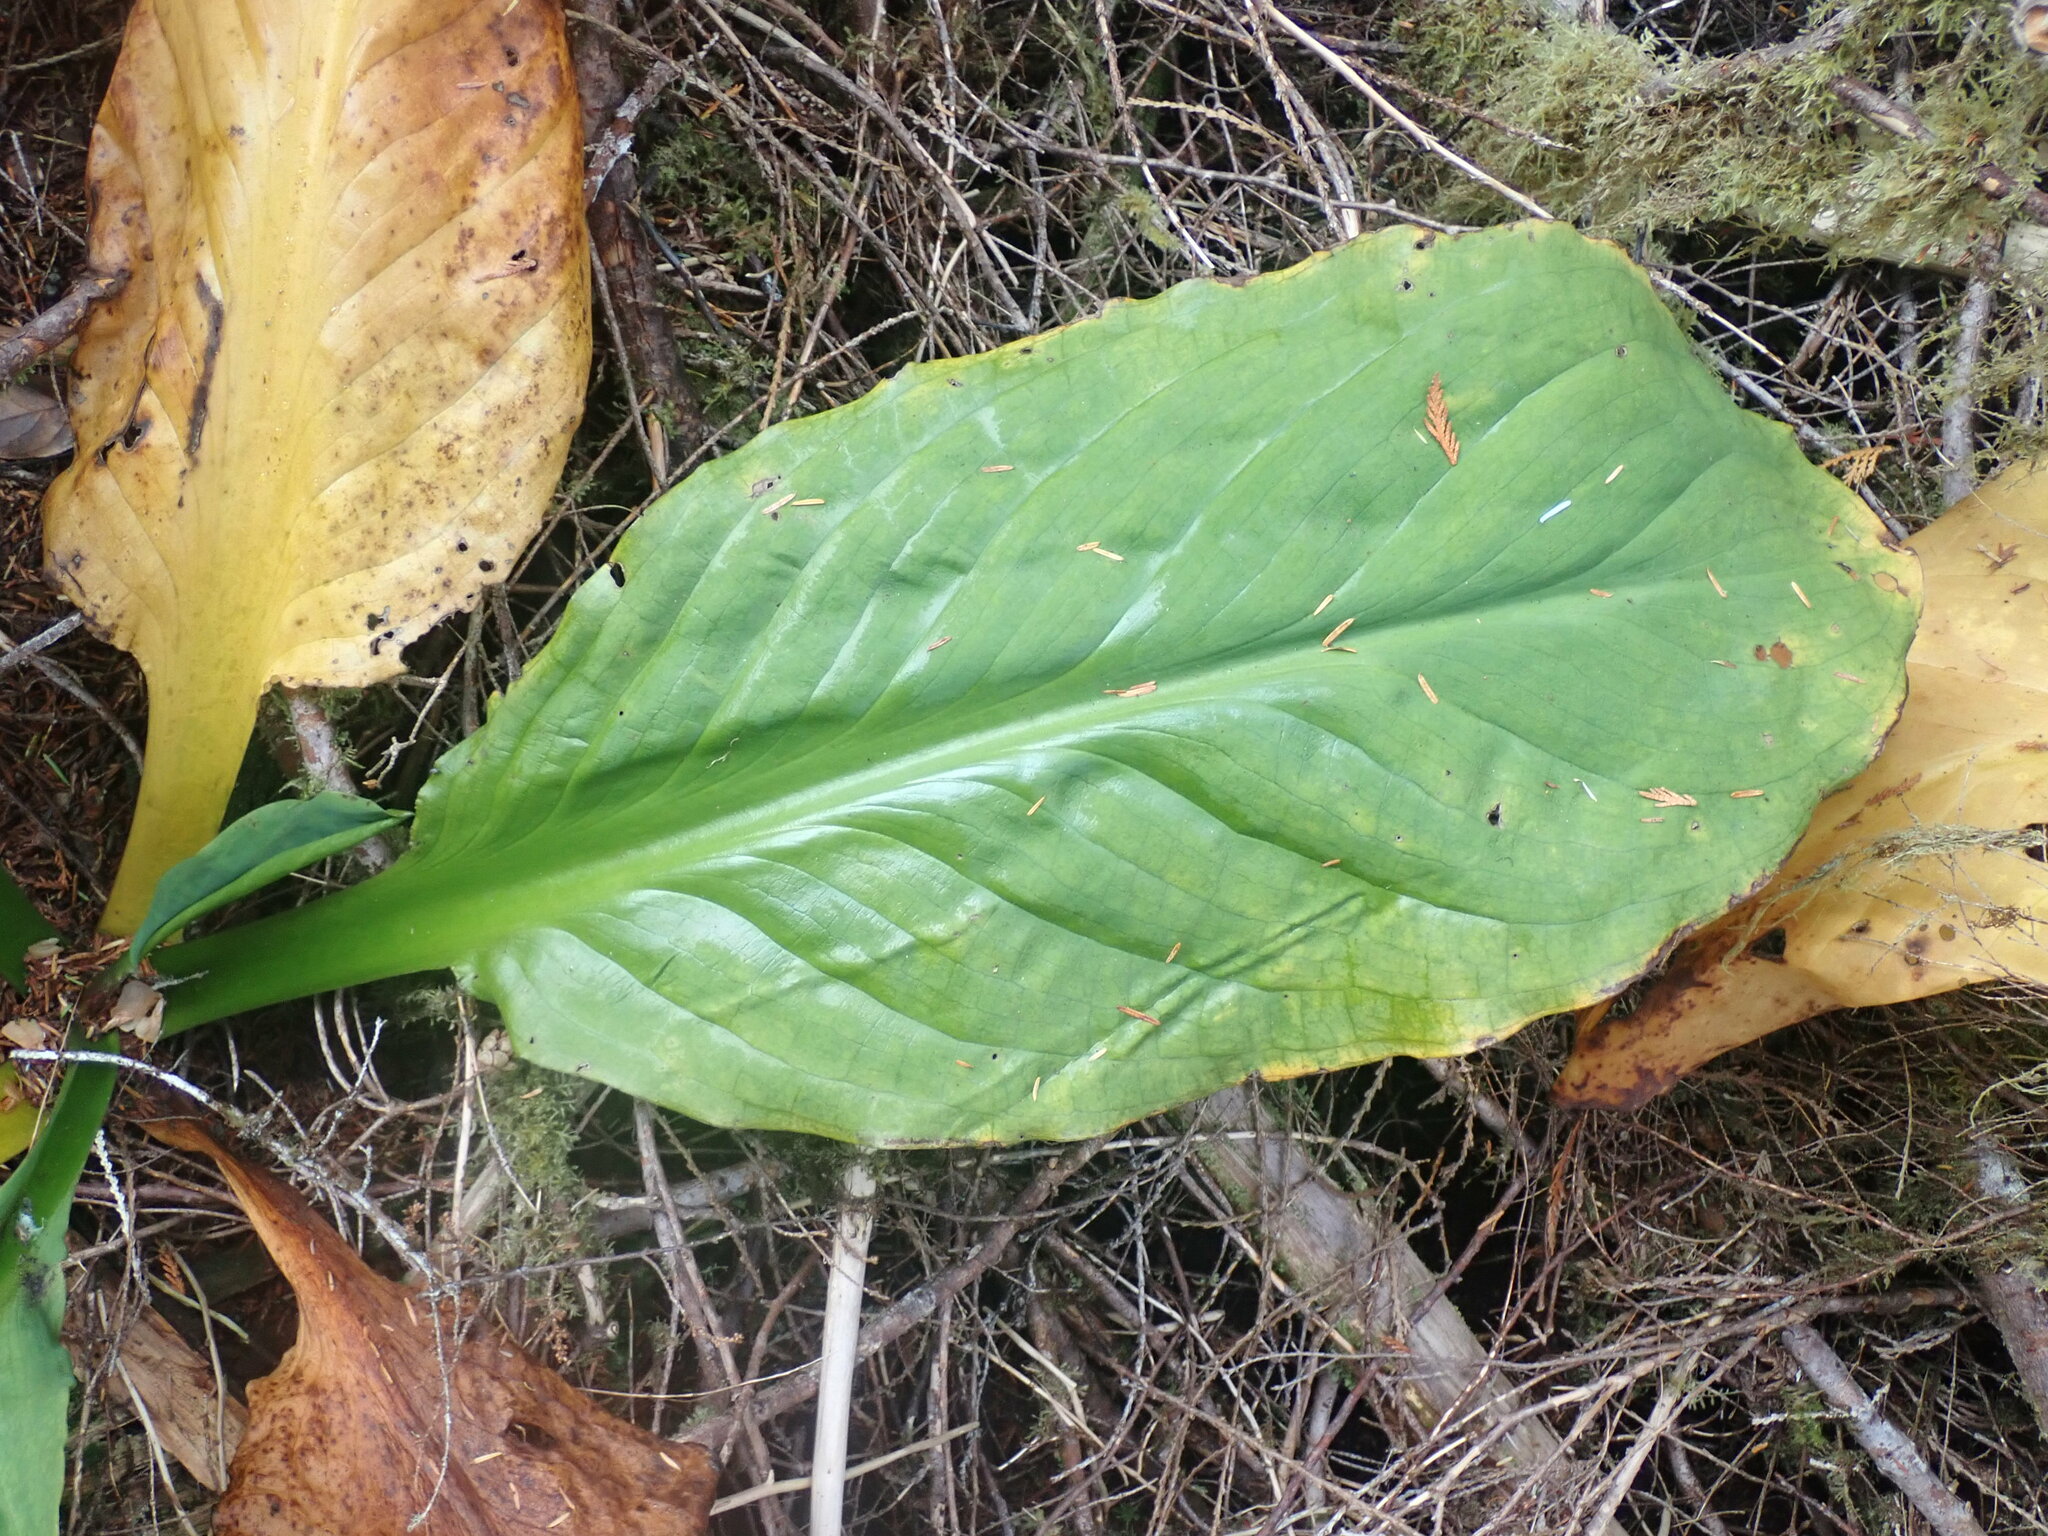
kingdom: Plantae
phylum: Tracheophyta
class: Liliopsida
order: Alismatales
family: Araceae
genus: Lysichiton
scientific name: Lysichiton americanus
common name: American skunk cabbage
